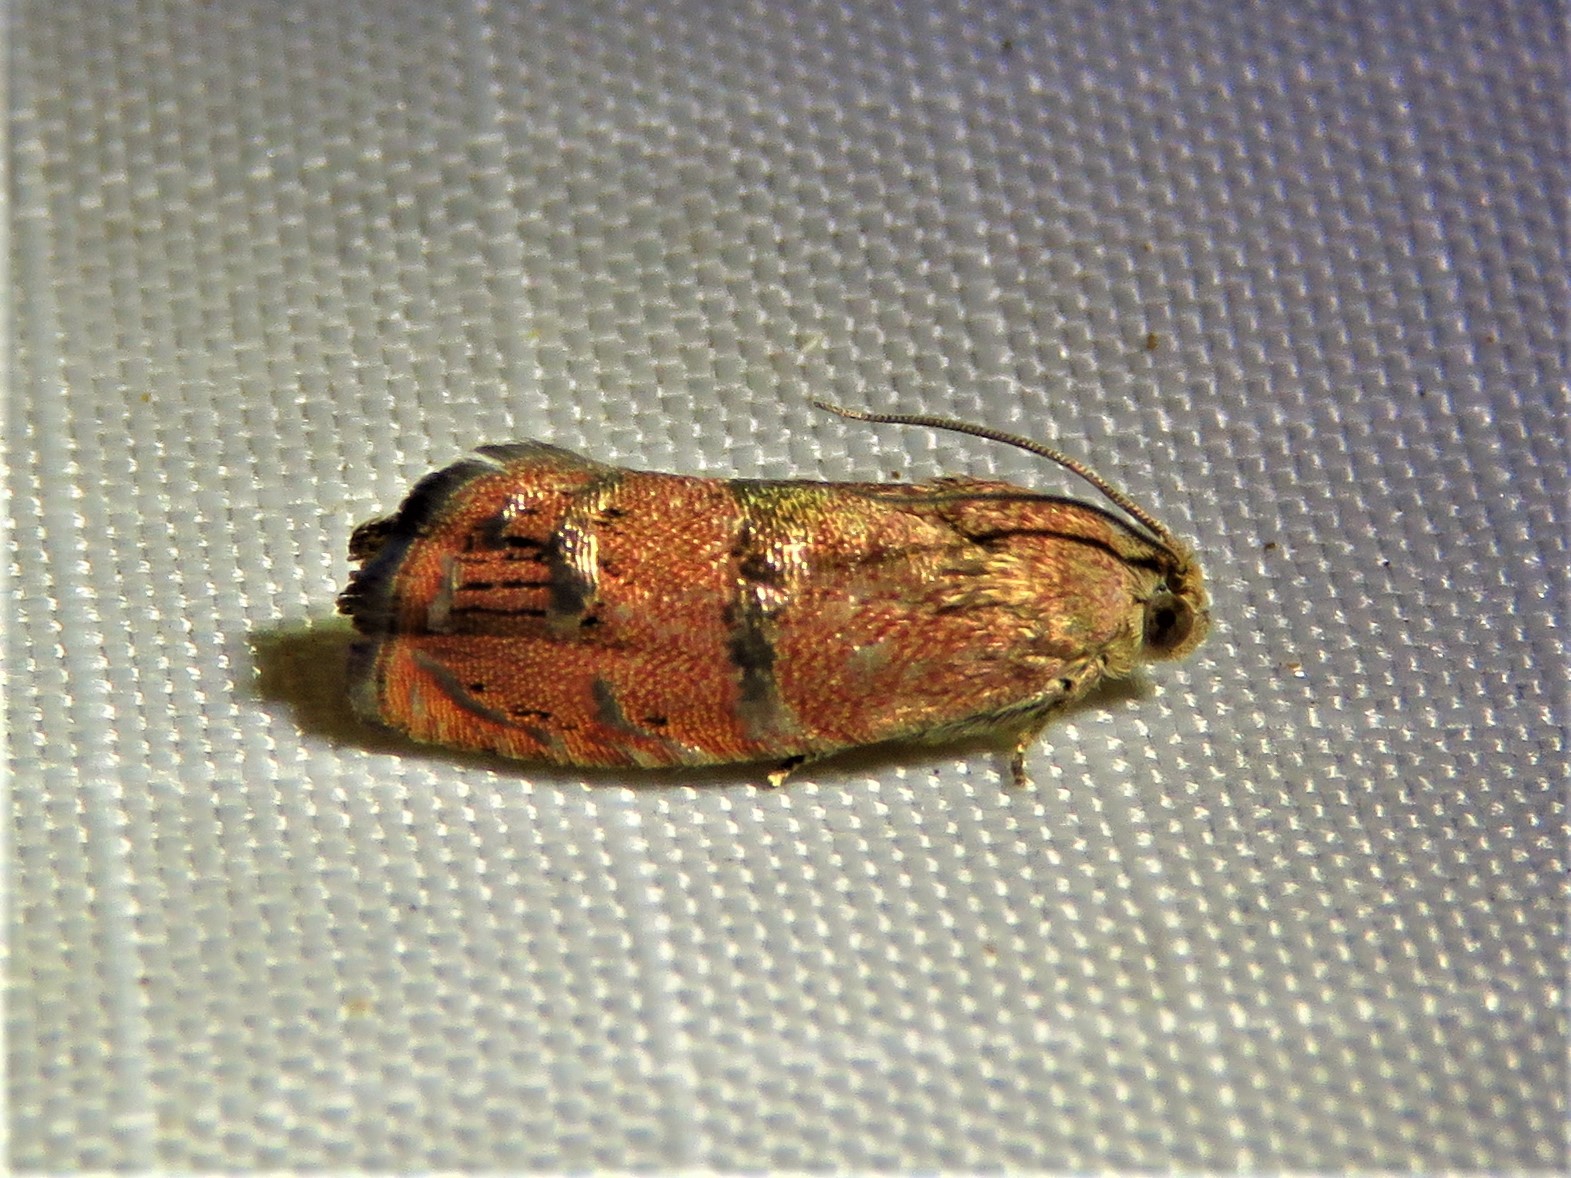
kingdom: Animalia
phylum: Arthropoda
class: Insecta
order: Lepidoptera
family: Tortricidae
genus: Cydia
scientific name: Cydia latiferreana
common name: Filbertworm moth
